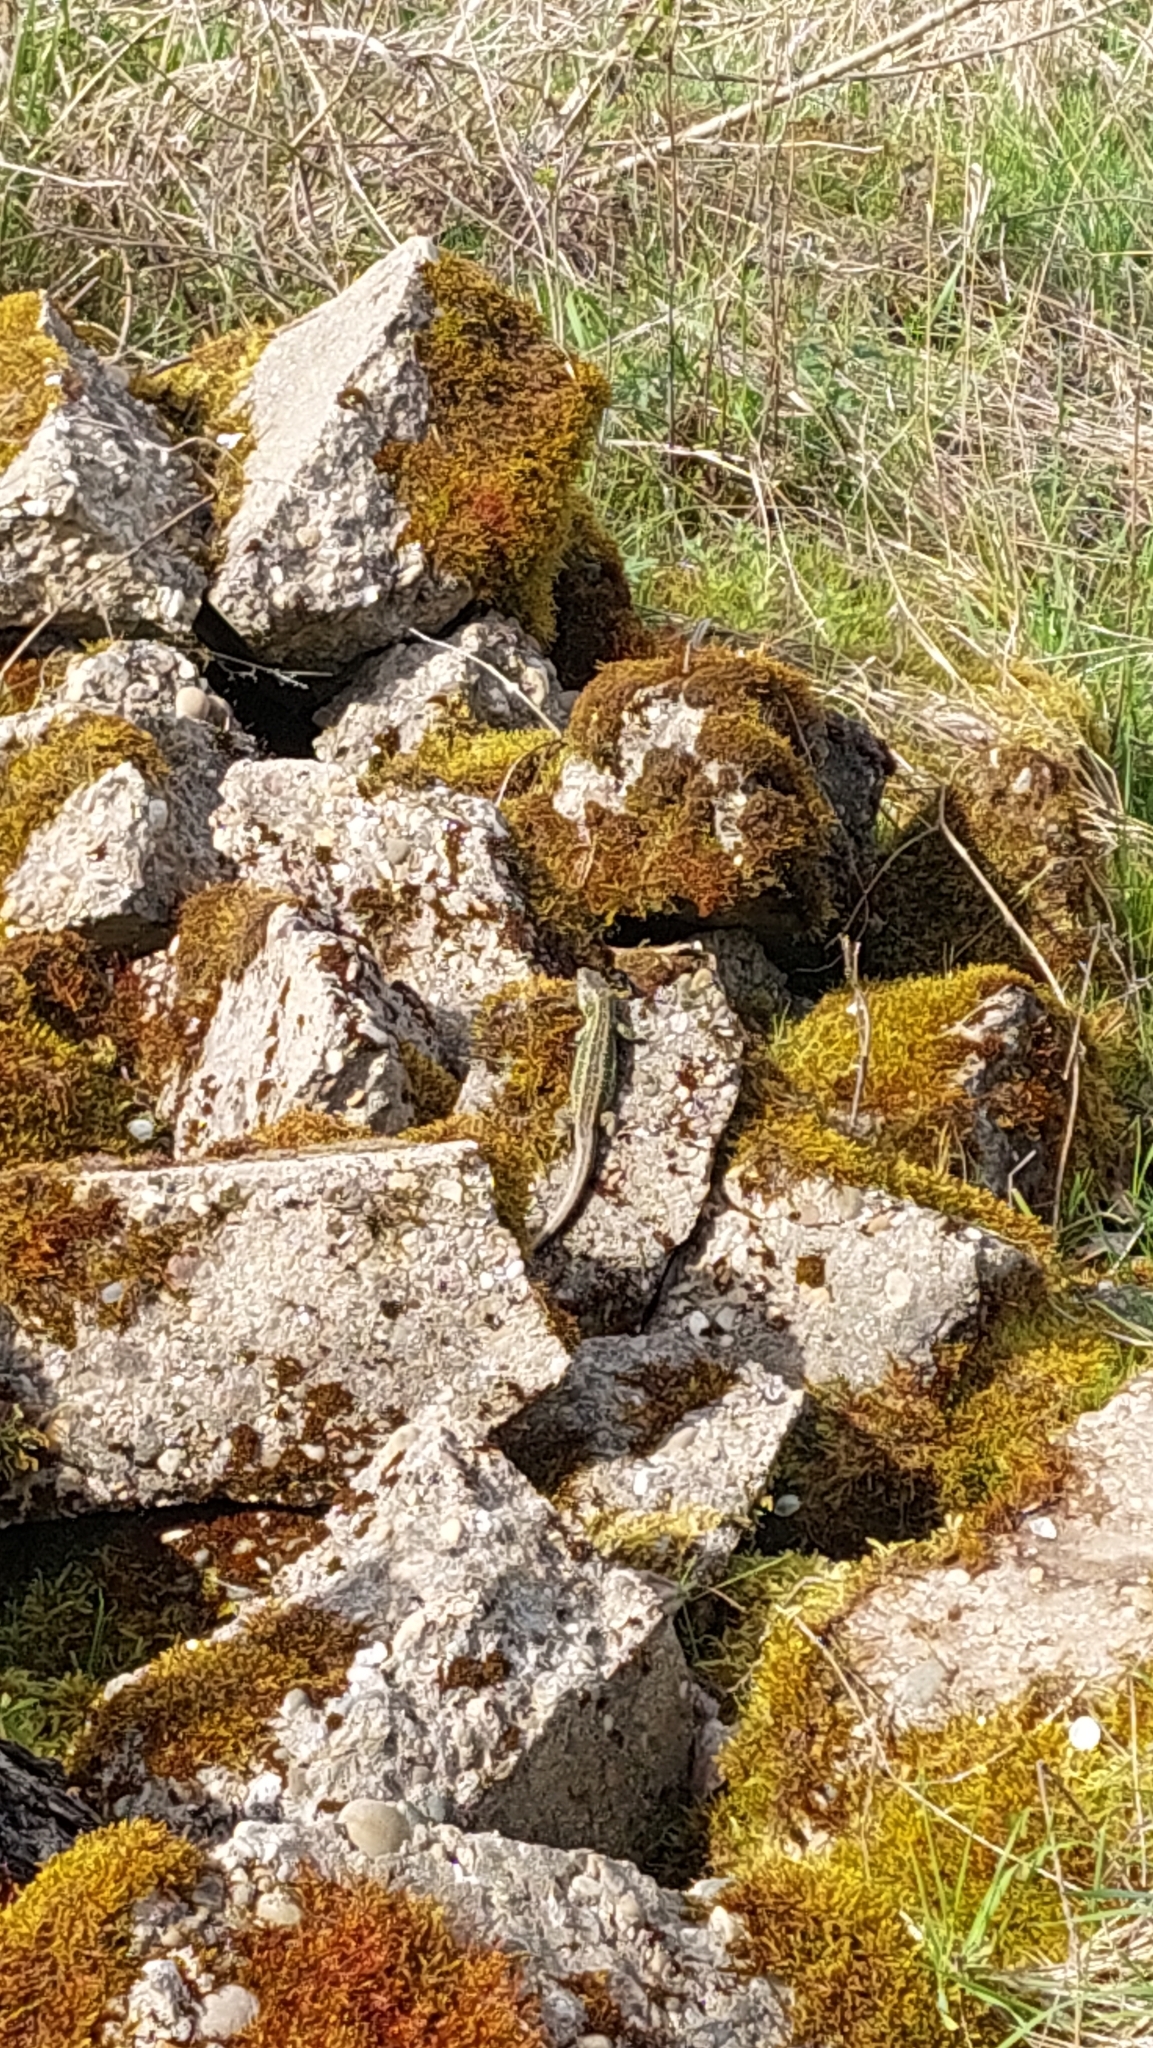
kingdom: Animalia
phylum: Chordata
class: Squamata
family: Lacertidae
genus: Lacerta
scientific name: Lacerta agilis
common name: Sand lizard
